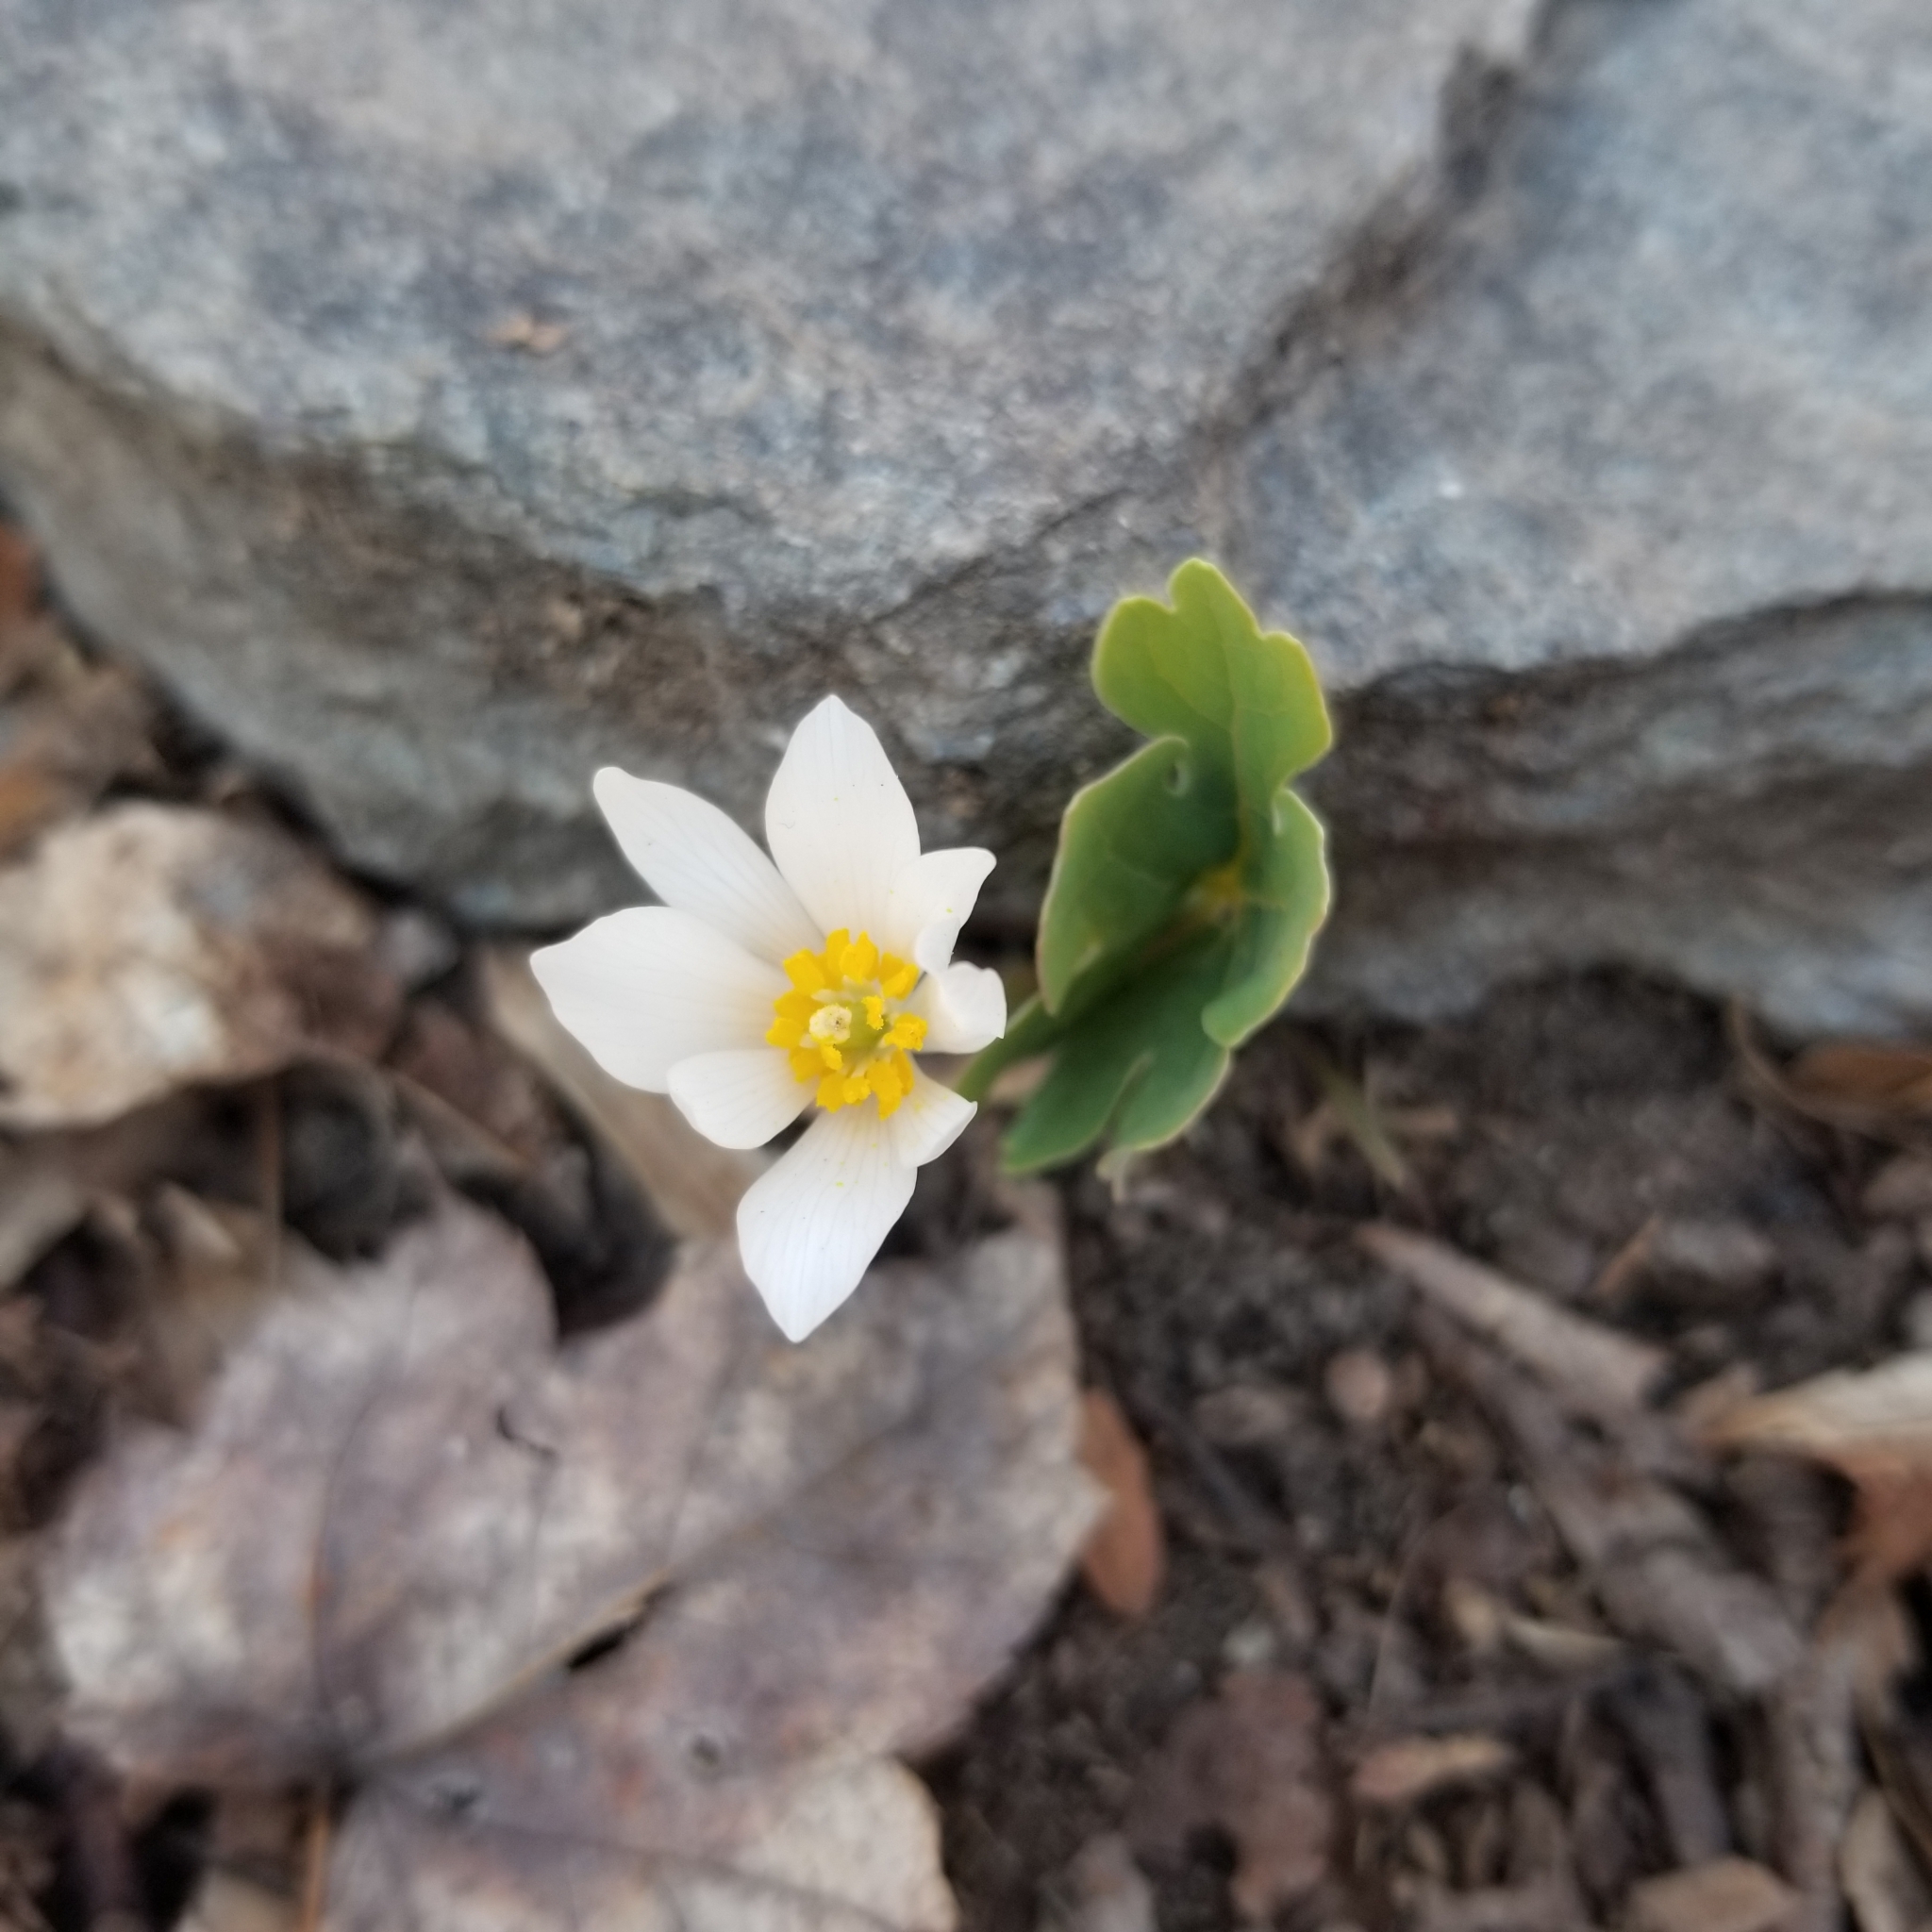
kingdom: Plantae
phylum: Tracheophyta
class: Magnoliopsida
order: Ranunculales
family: Papaveraceae
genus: Sanguinaria
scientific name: Sanguinaria canadensis
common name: Bloodroot
